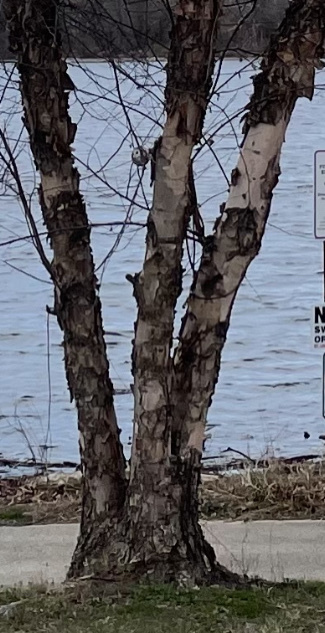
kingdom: Plantae
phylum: Tracheophyta
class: Magnoliopsida
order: Fagales
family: Betulaceae
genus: Betula
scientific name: Betula nigra
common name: Black birch
